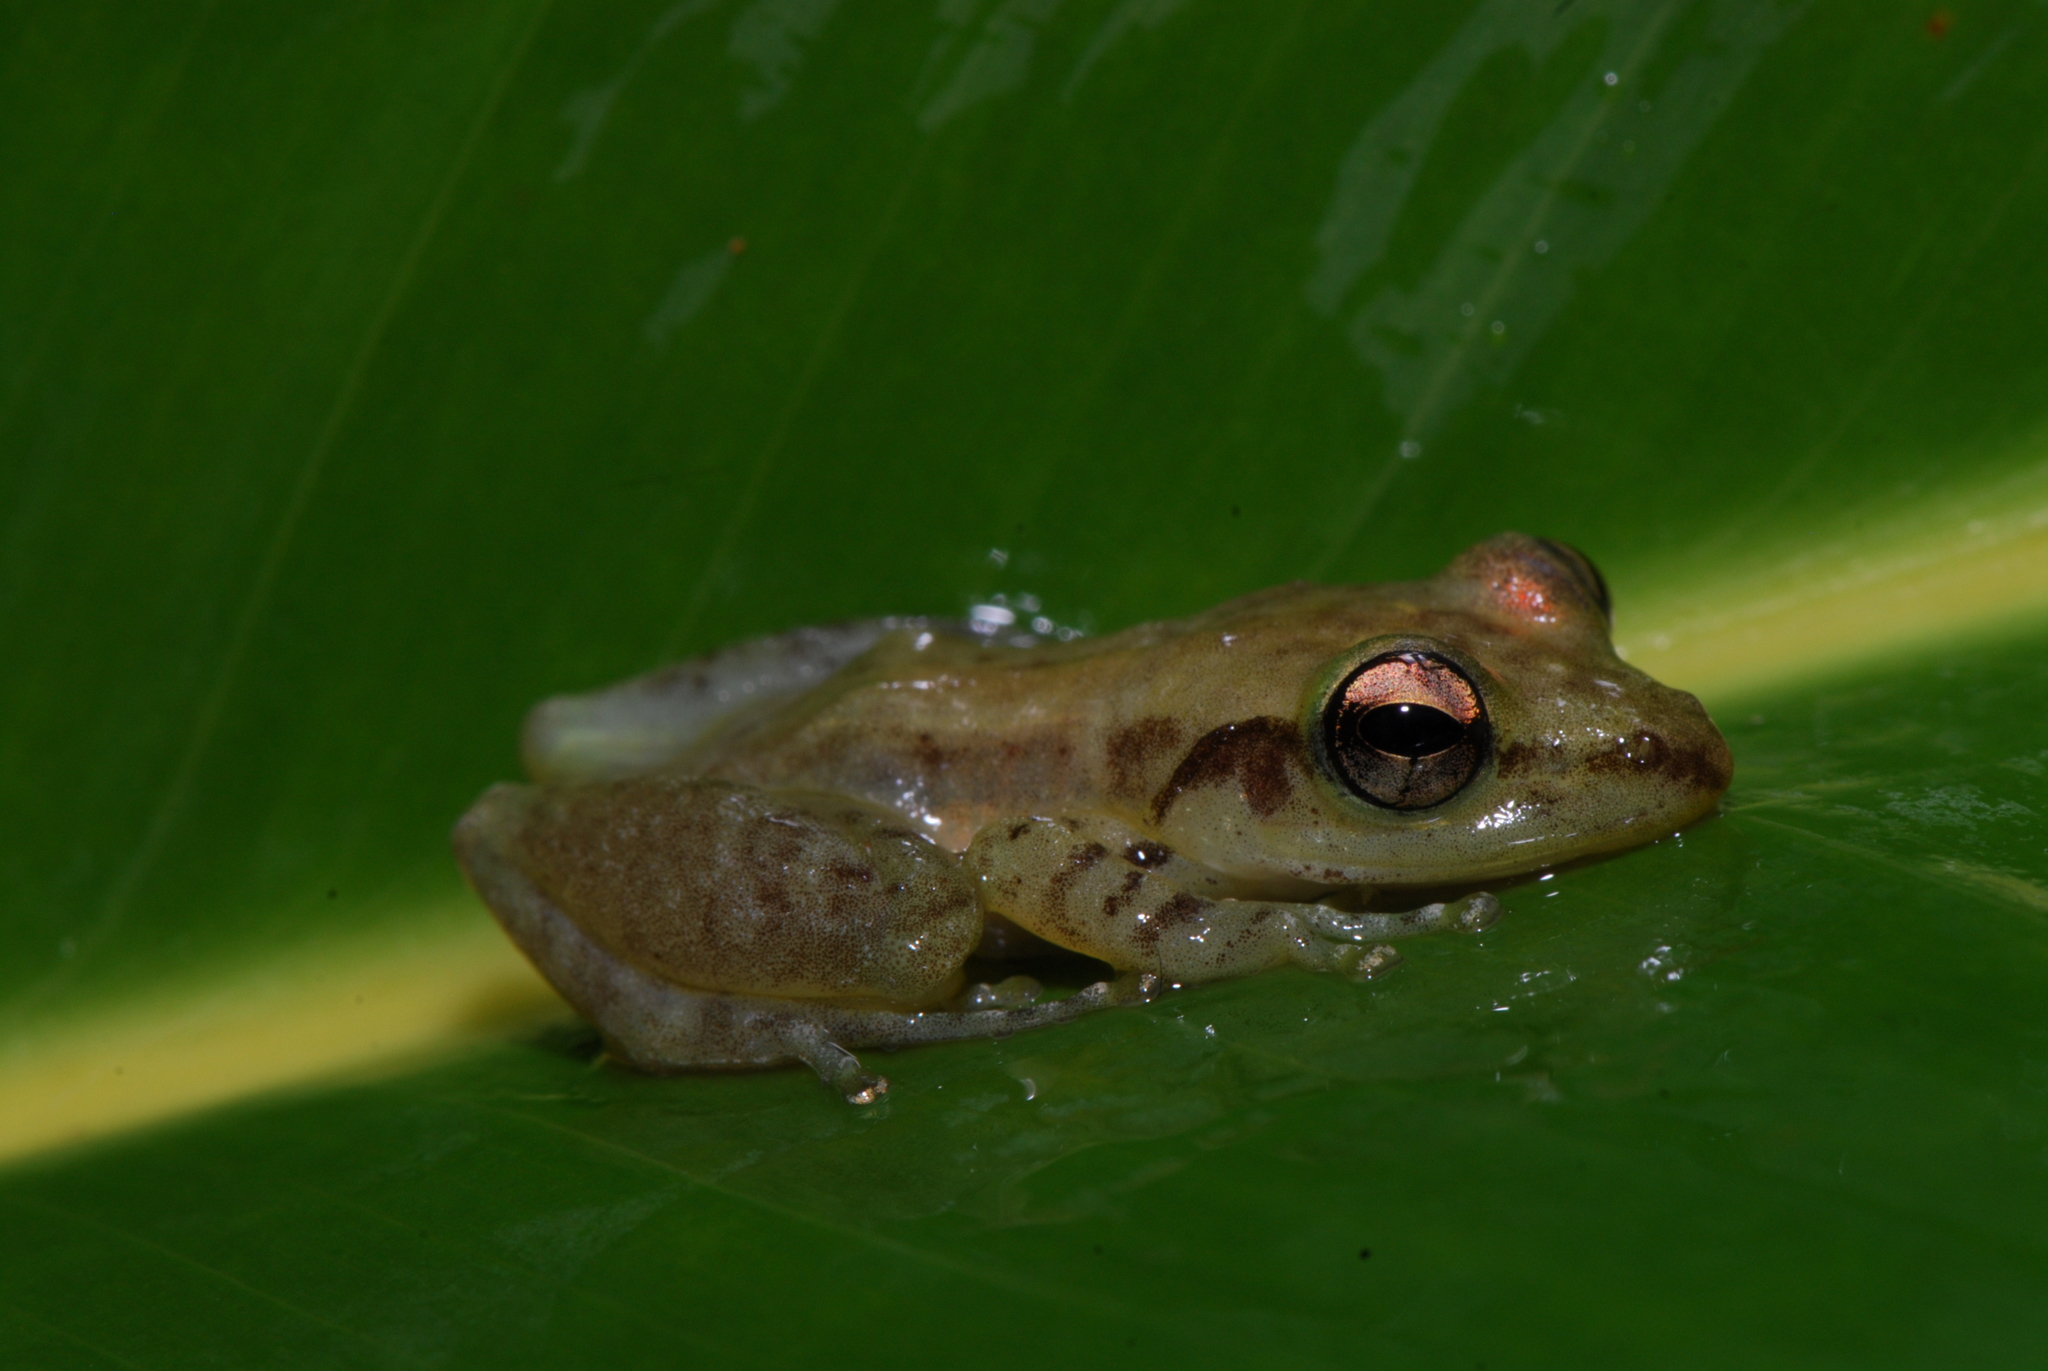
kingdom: Animalia
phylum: Chordata
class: Amphibia
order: Anura
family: Mantellidae
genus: Guibemantis
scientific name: Guibemantis methueni
